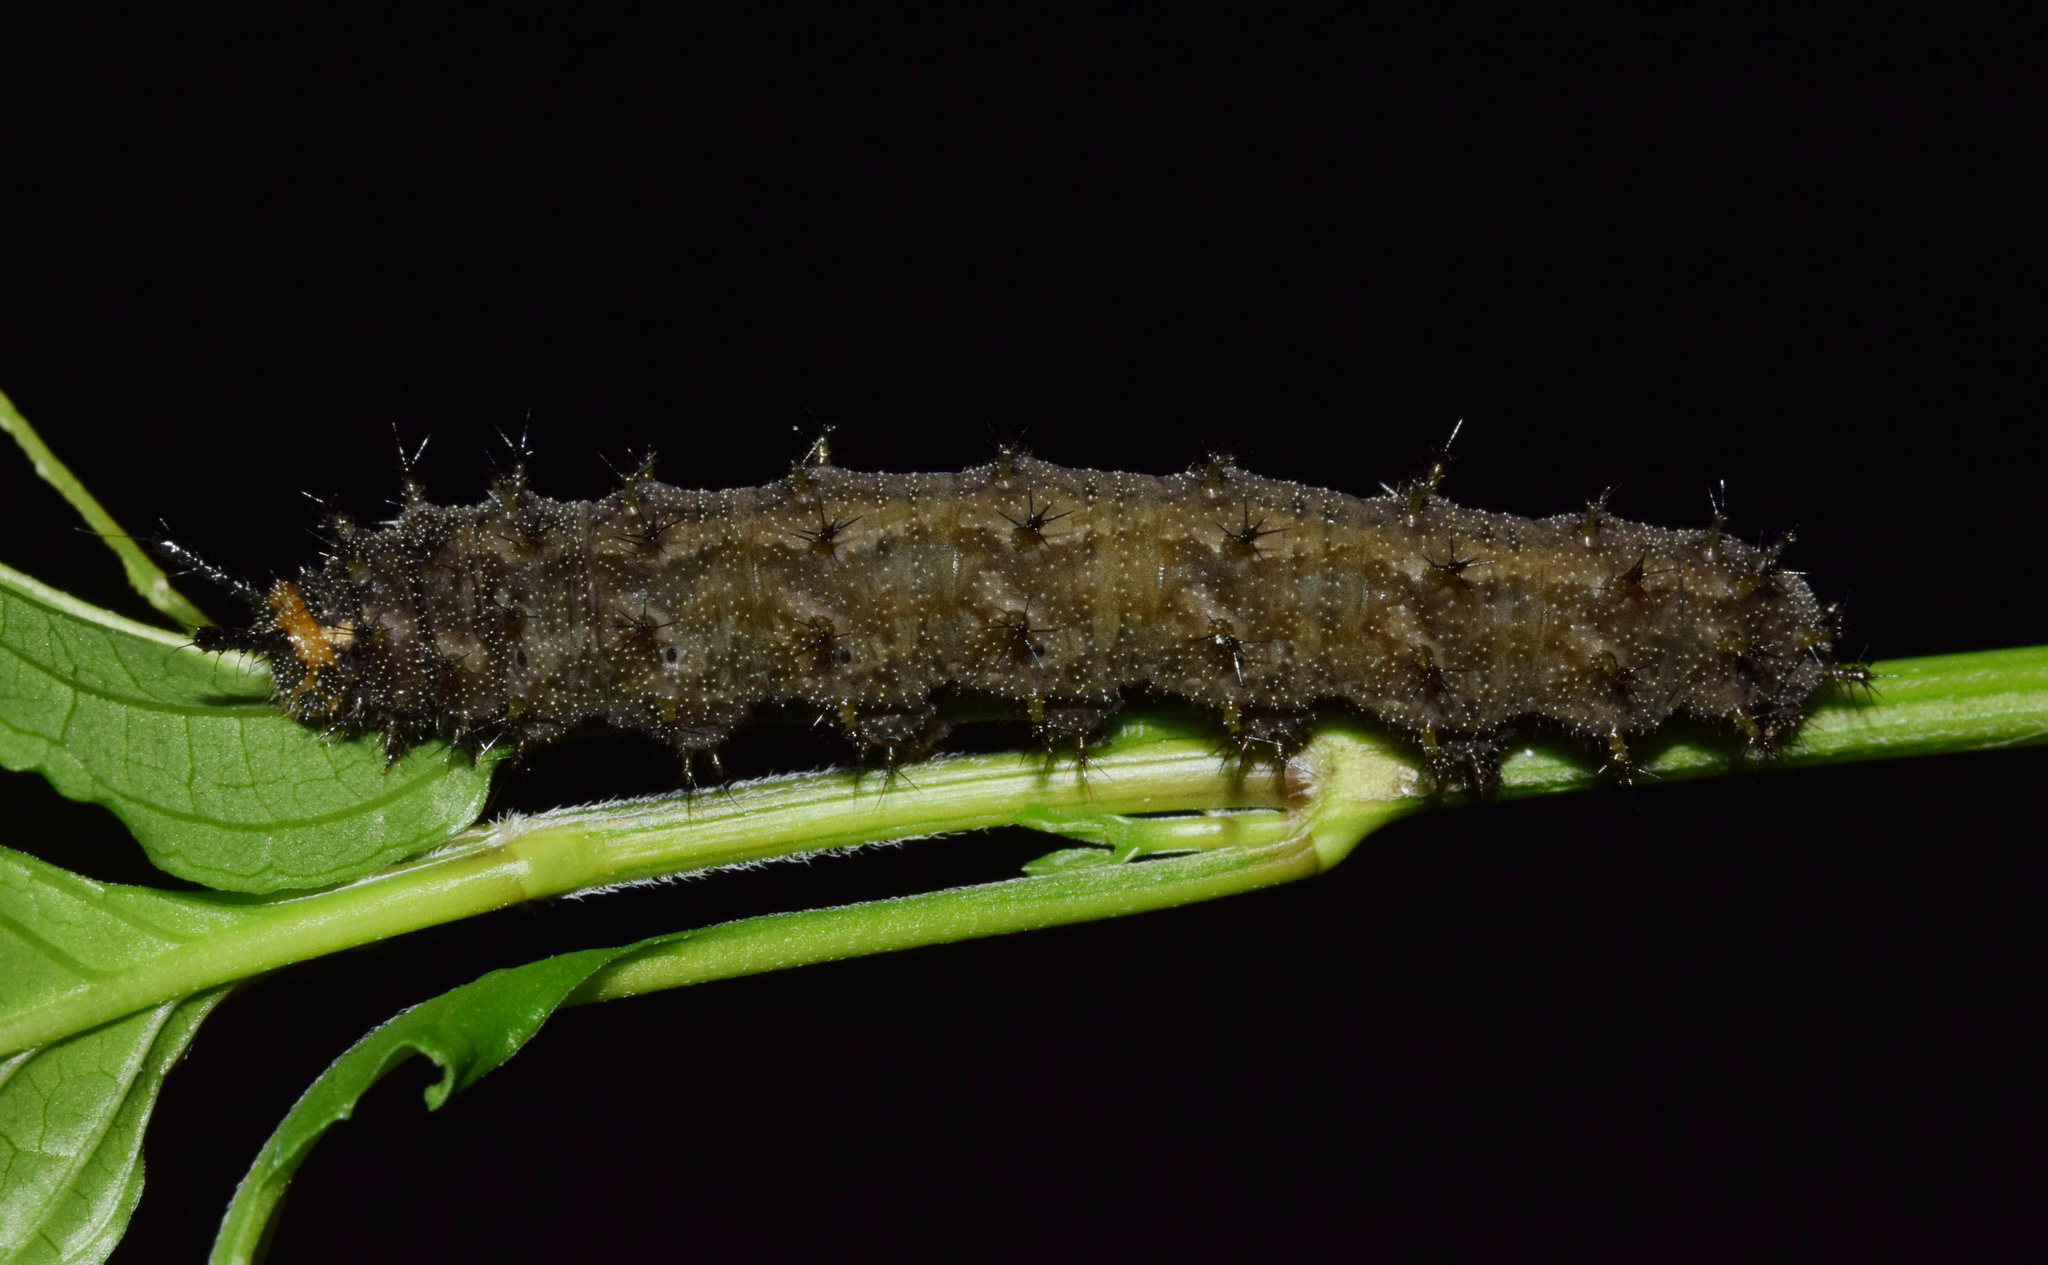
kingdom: Animalia
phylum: Arthropoda
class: Insecta
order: Lepidoptera
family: Nymphalidae
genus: Junonia
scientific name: Junonia natalica
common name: Brown pansy
